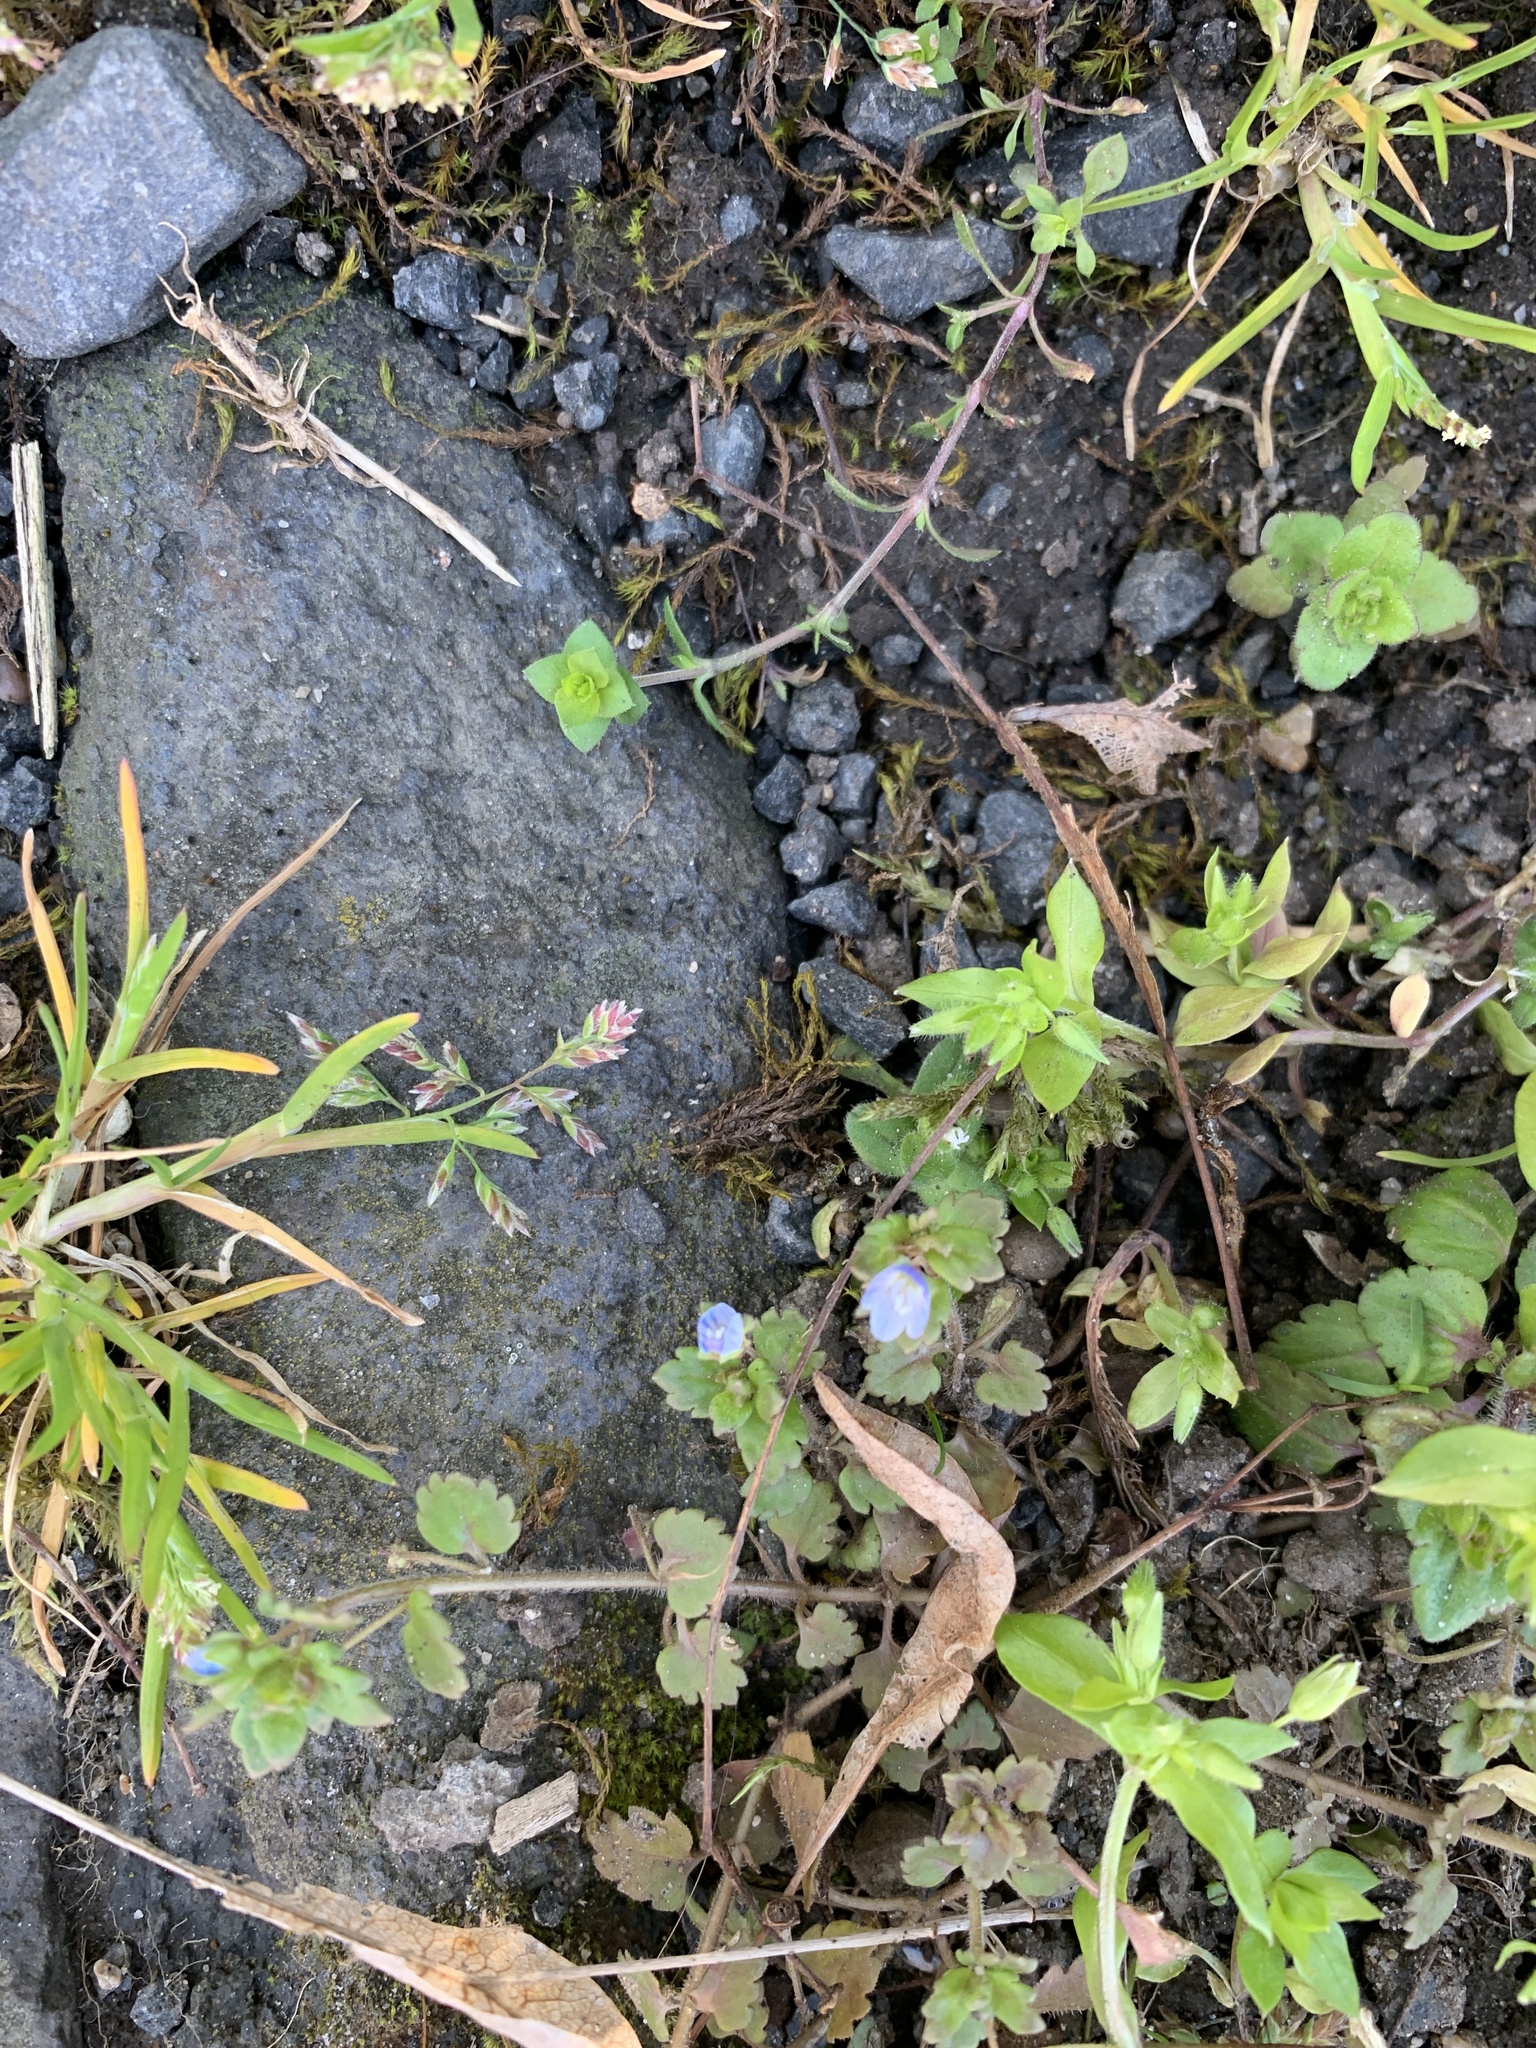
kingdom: Plantae
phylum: Tracheophyta
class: Magnoliopsida
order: Lamiales
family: Plantaginaceae
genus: Veronica
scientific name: Veronica polita
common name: Grey field-speedwell
